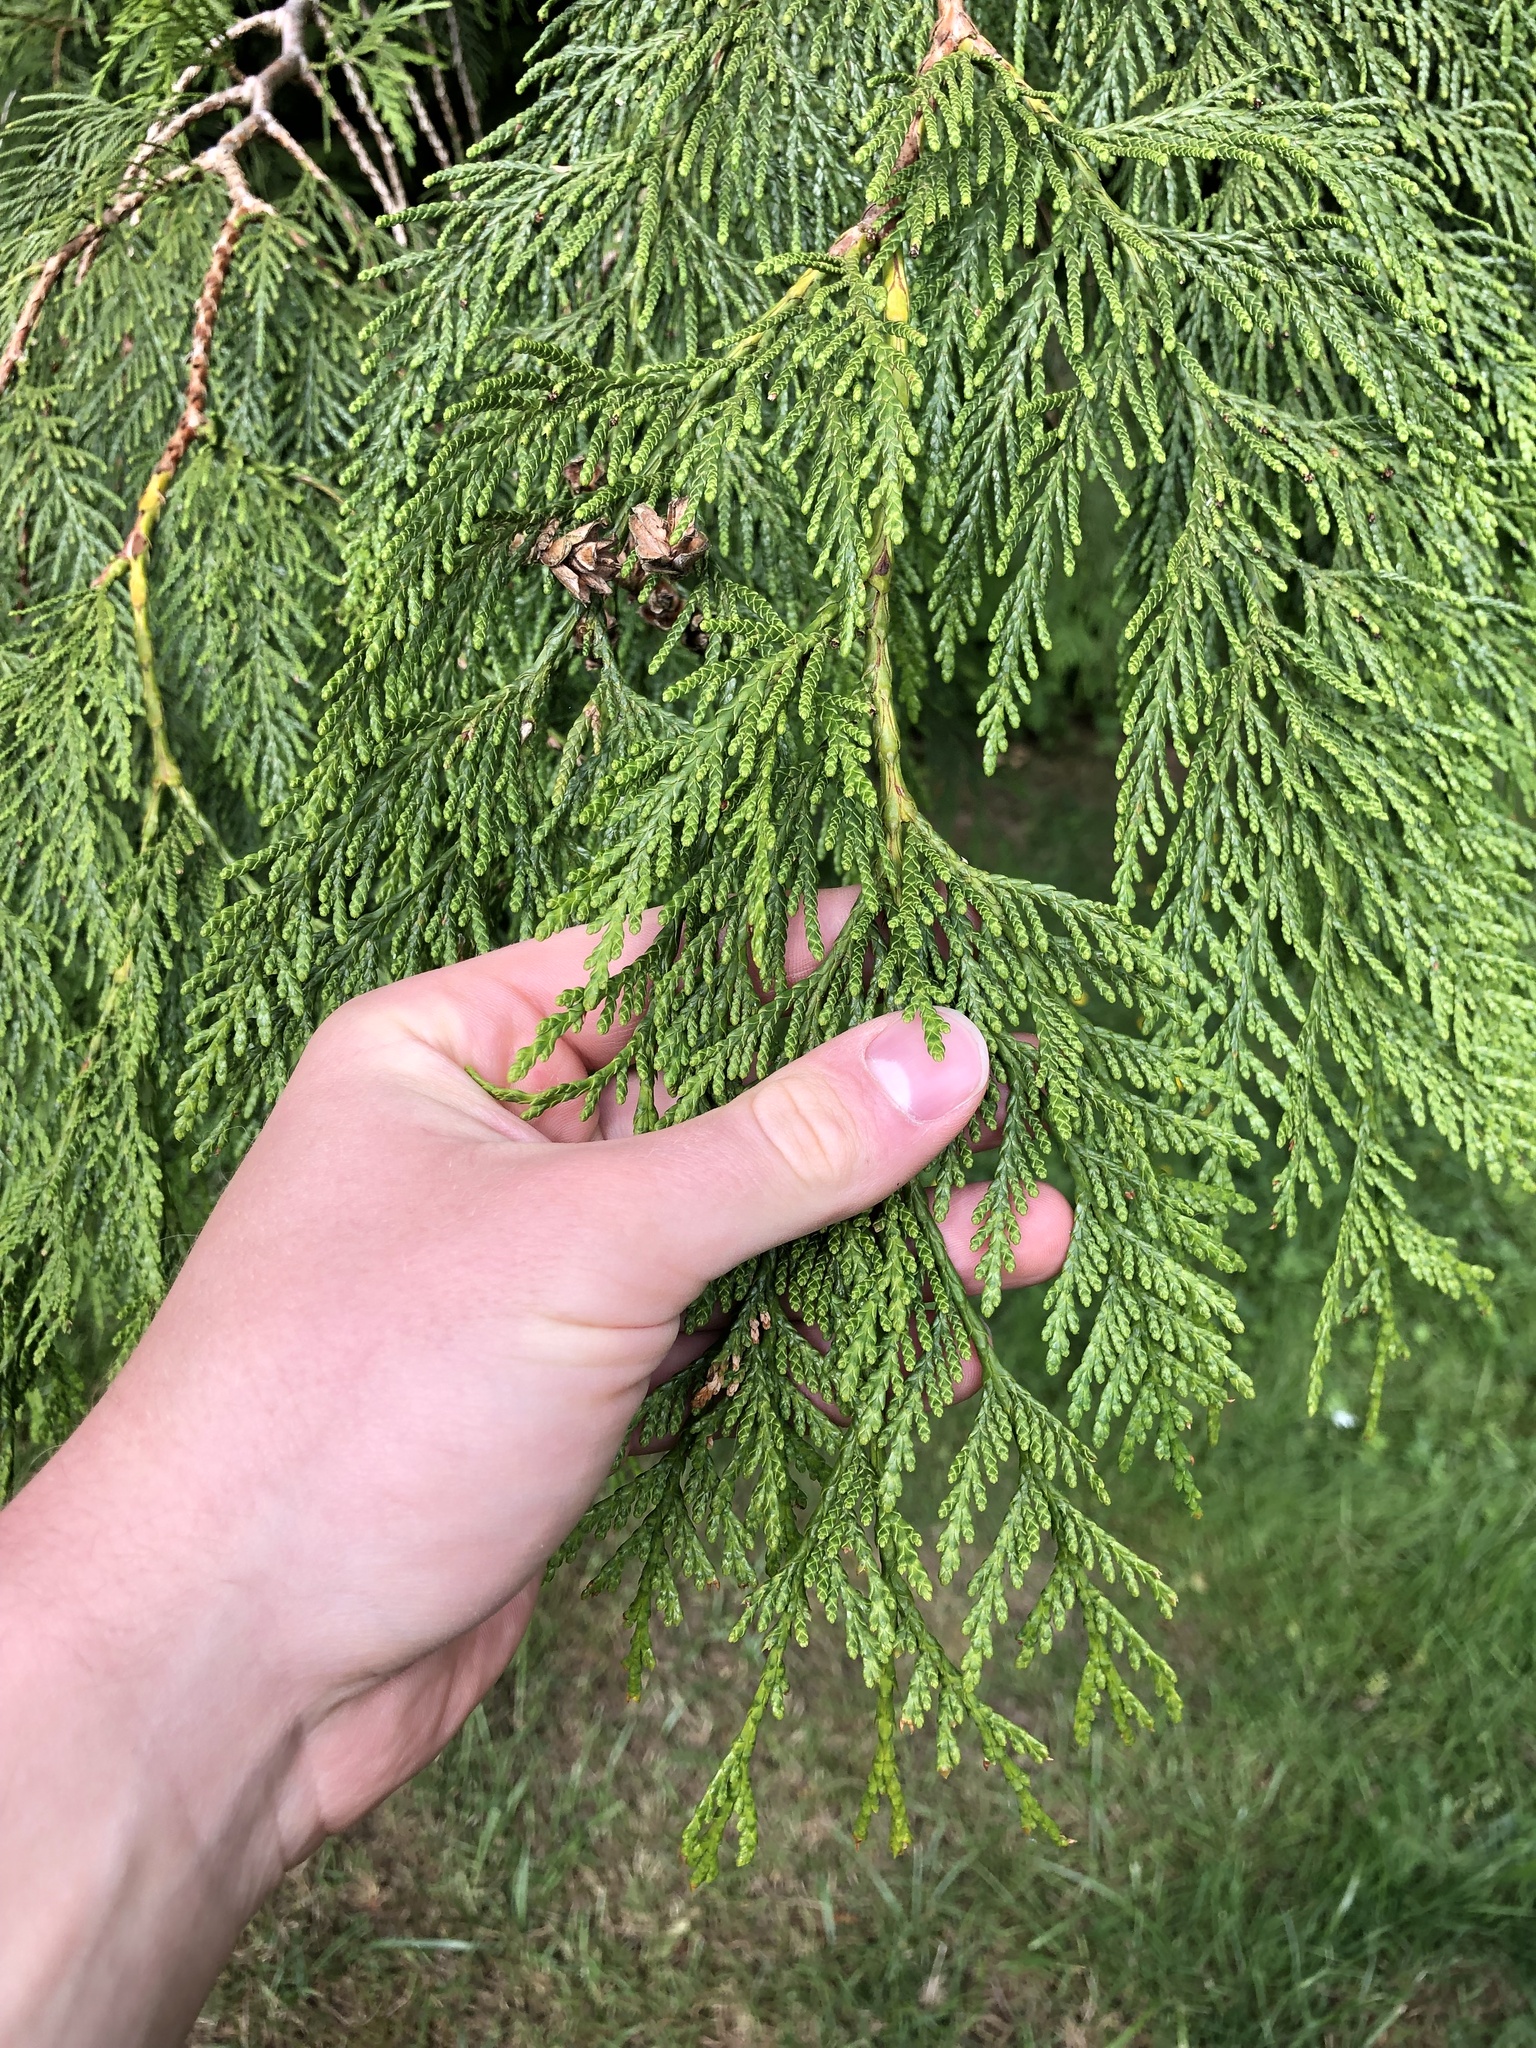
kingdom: Plantae
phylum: Tracheophyta
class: Pinopsida
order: Pinales
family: Cupressaceae
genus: Thuja
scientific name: Thuja plicata
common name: Western red-cedar
